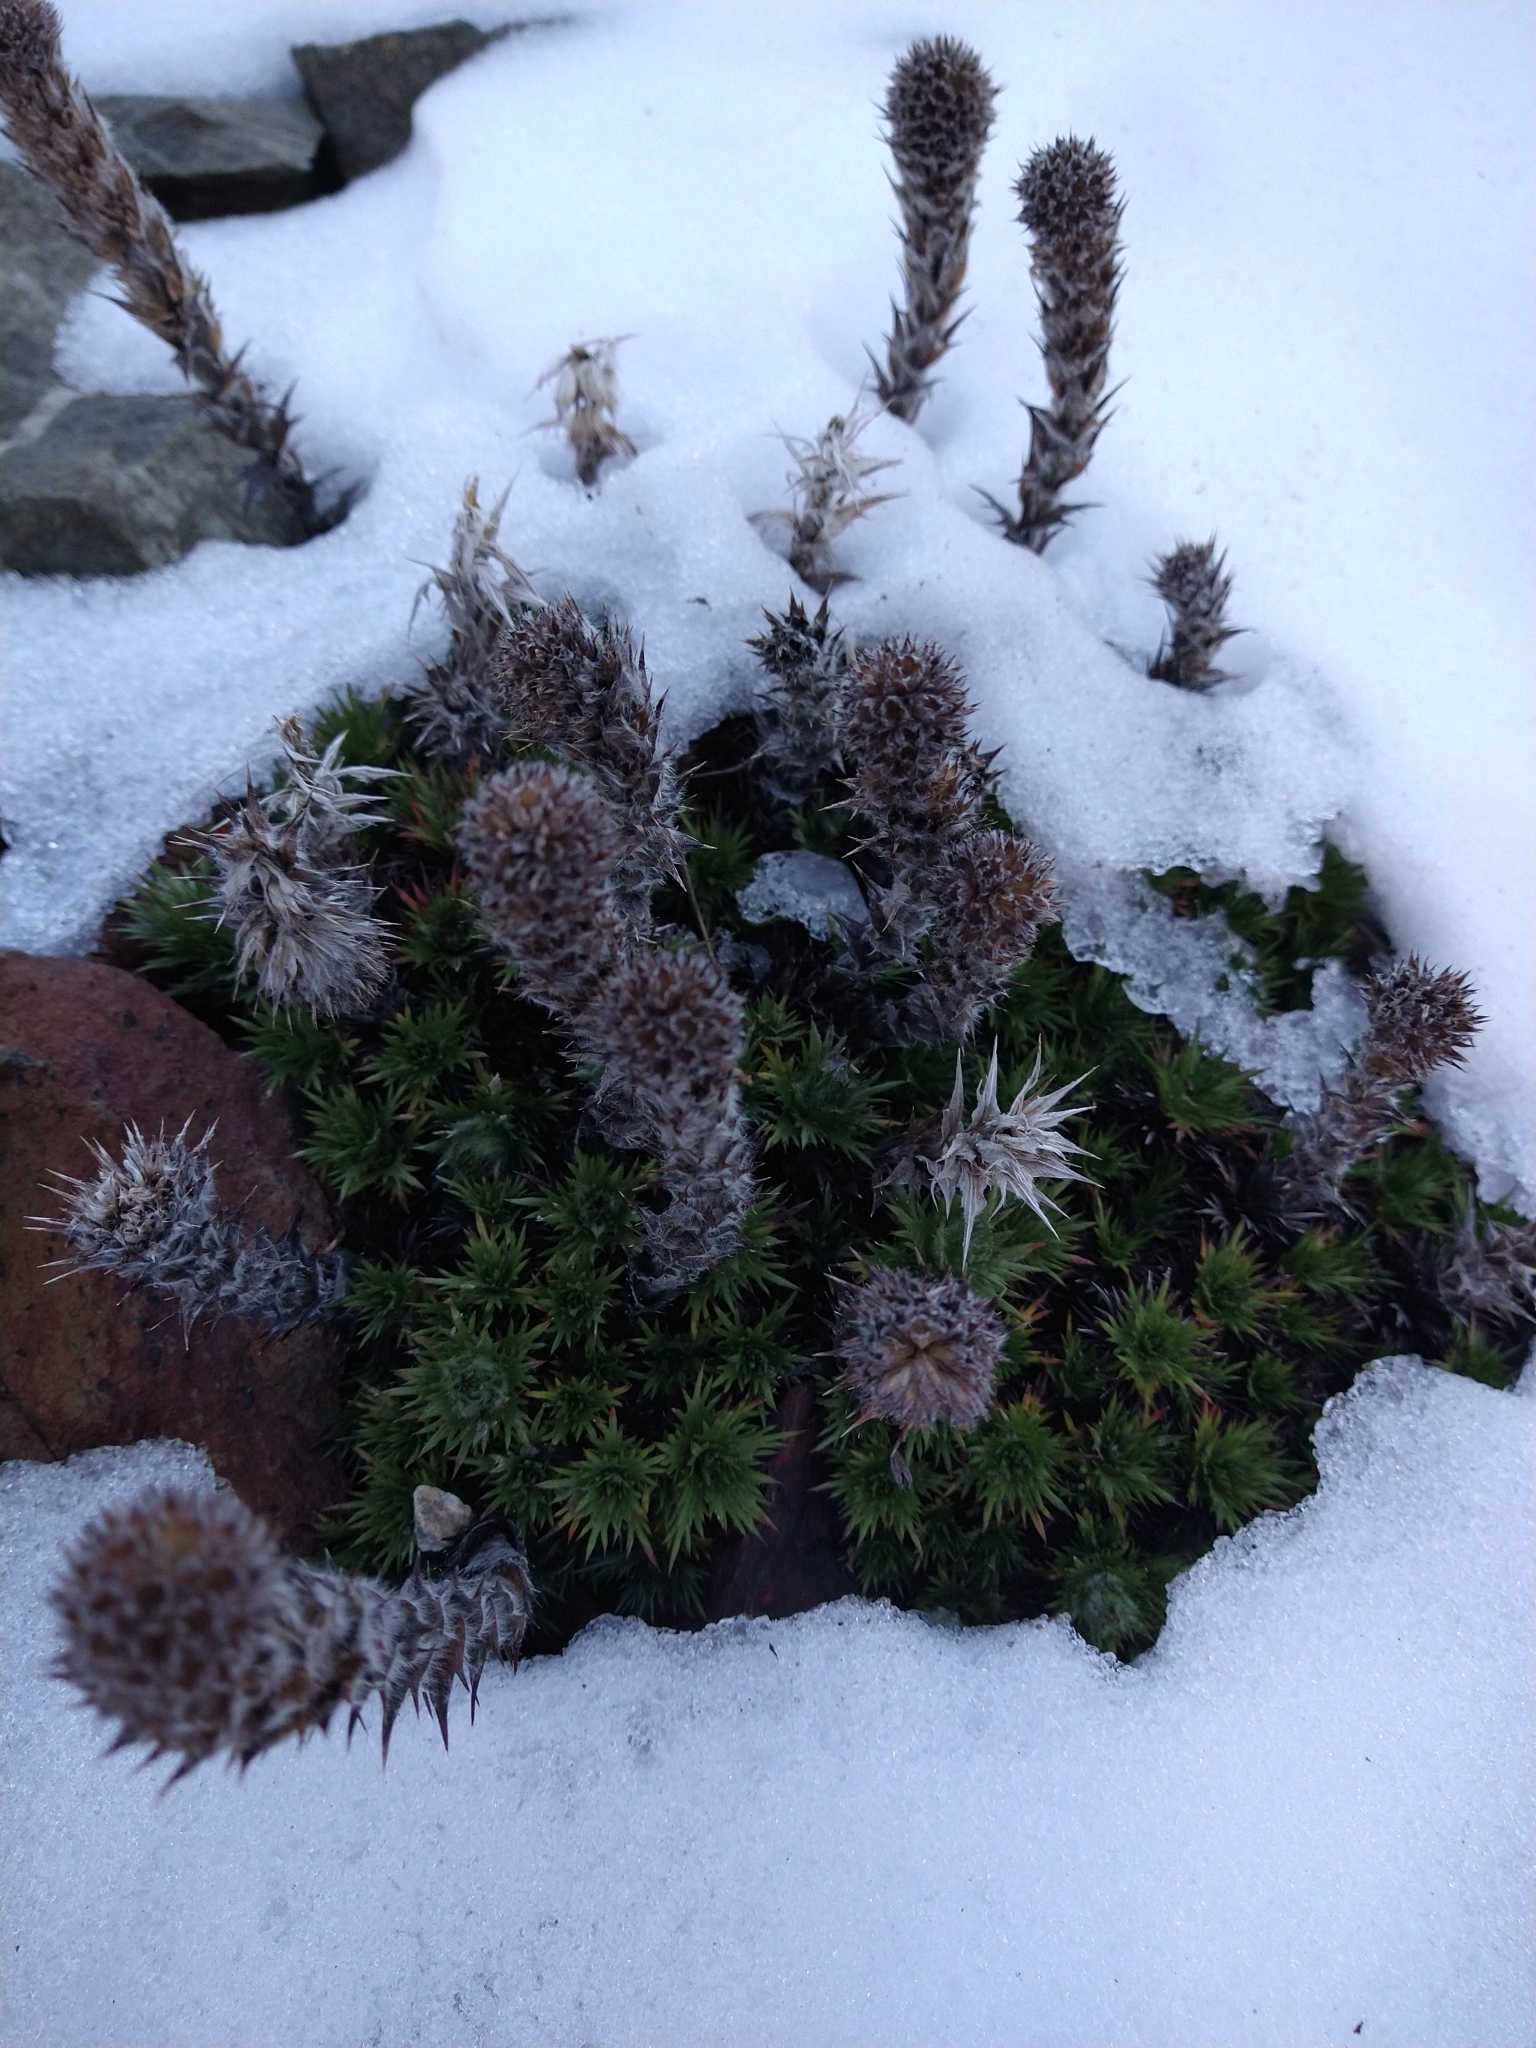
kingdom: Plantae
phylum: Tracheophyta
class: Magnoliopsida
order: Asterales
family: Asteraceae
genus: Nassauvia
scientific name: Nassauvia magellanica
